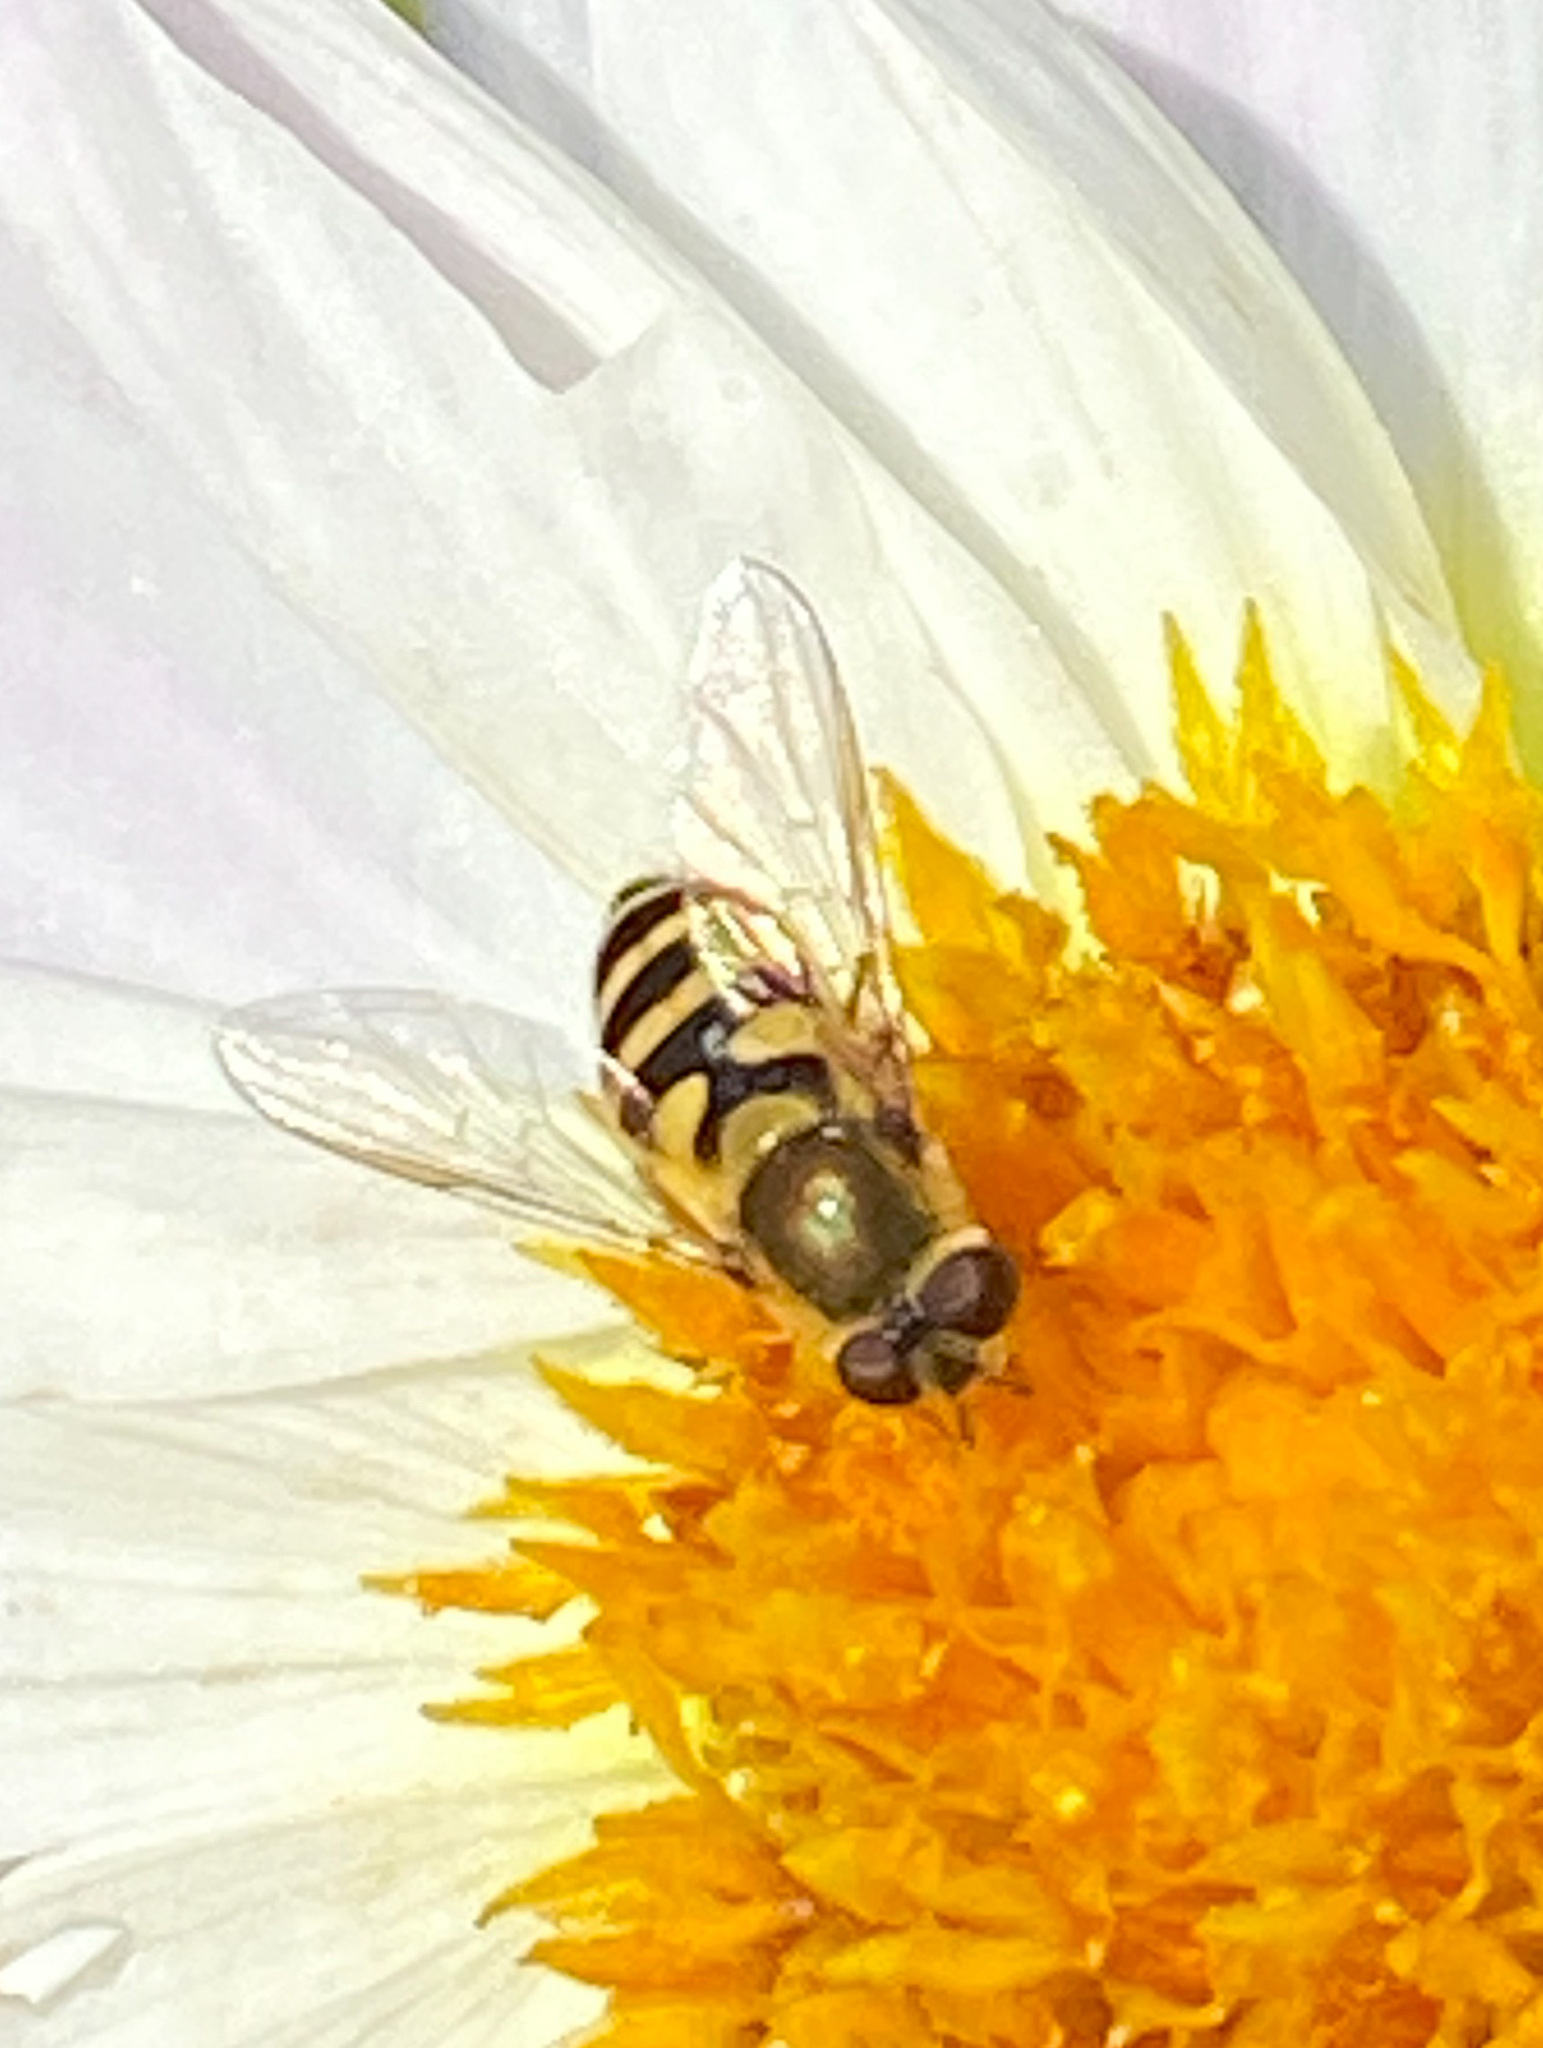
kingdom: Animalia
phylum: Arthropoda
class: Insecta
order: Diptera
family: Syrphidae
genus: Syrphus
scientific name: Syrphus
